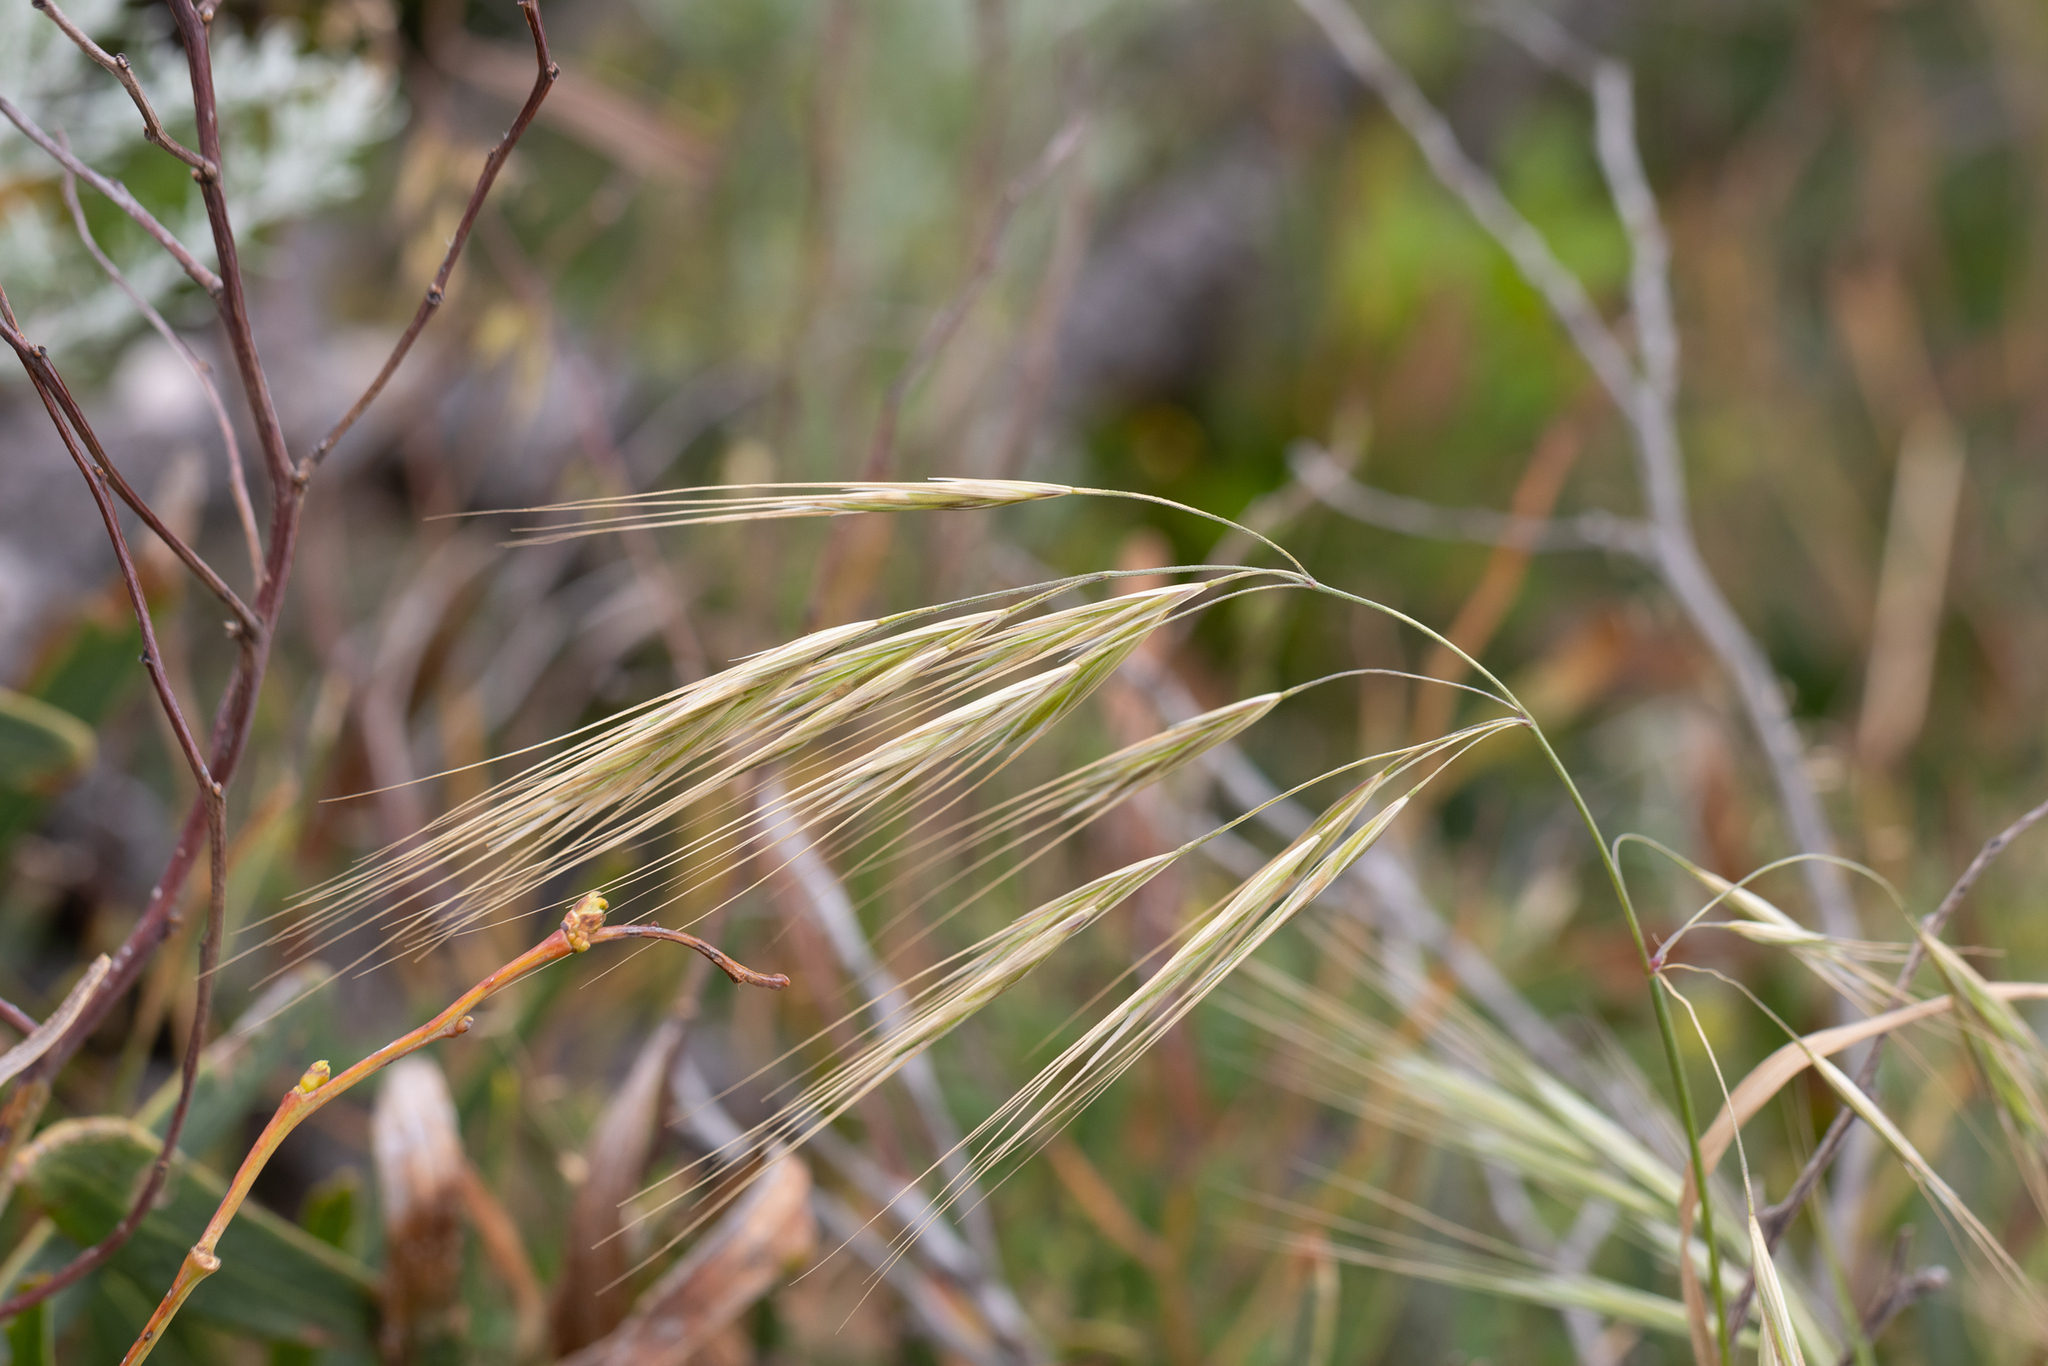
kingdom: Plantae
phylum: Tracheophyta
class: Liliopsida
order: Poales
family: Poaceae
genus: Bromus
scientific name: Bromus diandrus
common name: Ripgut brome
